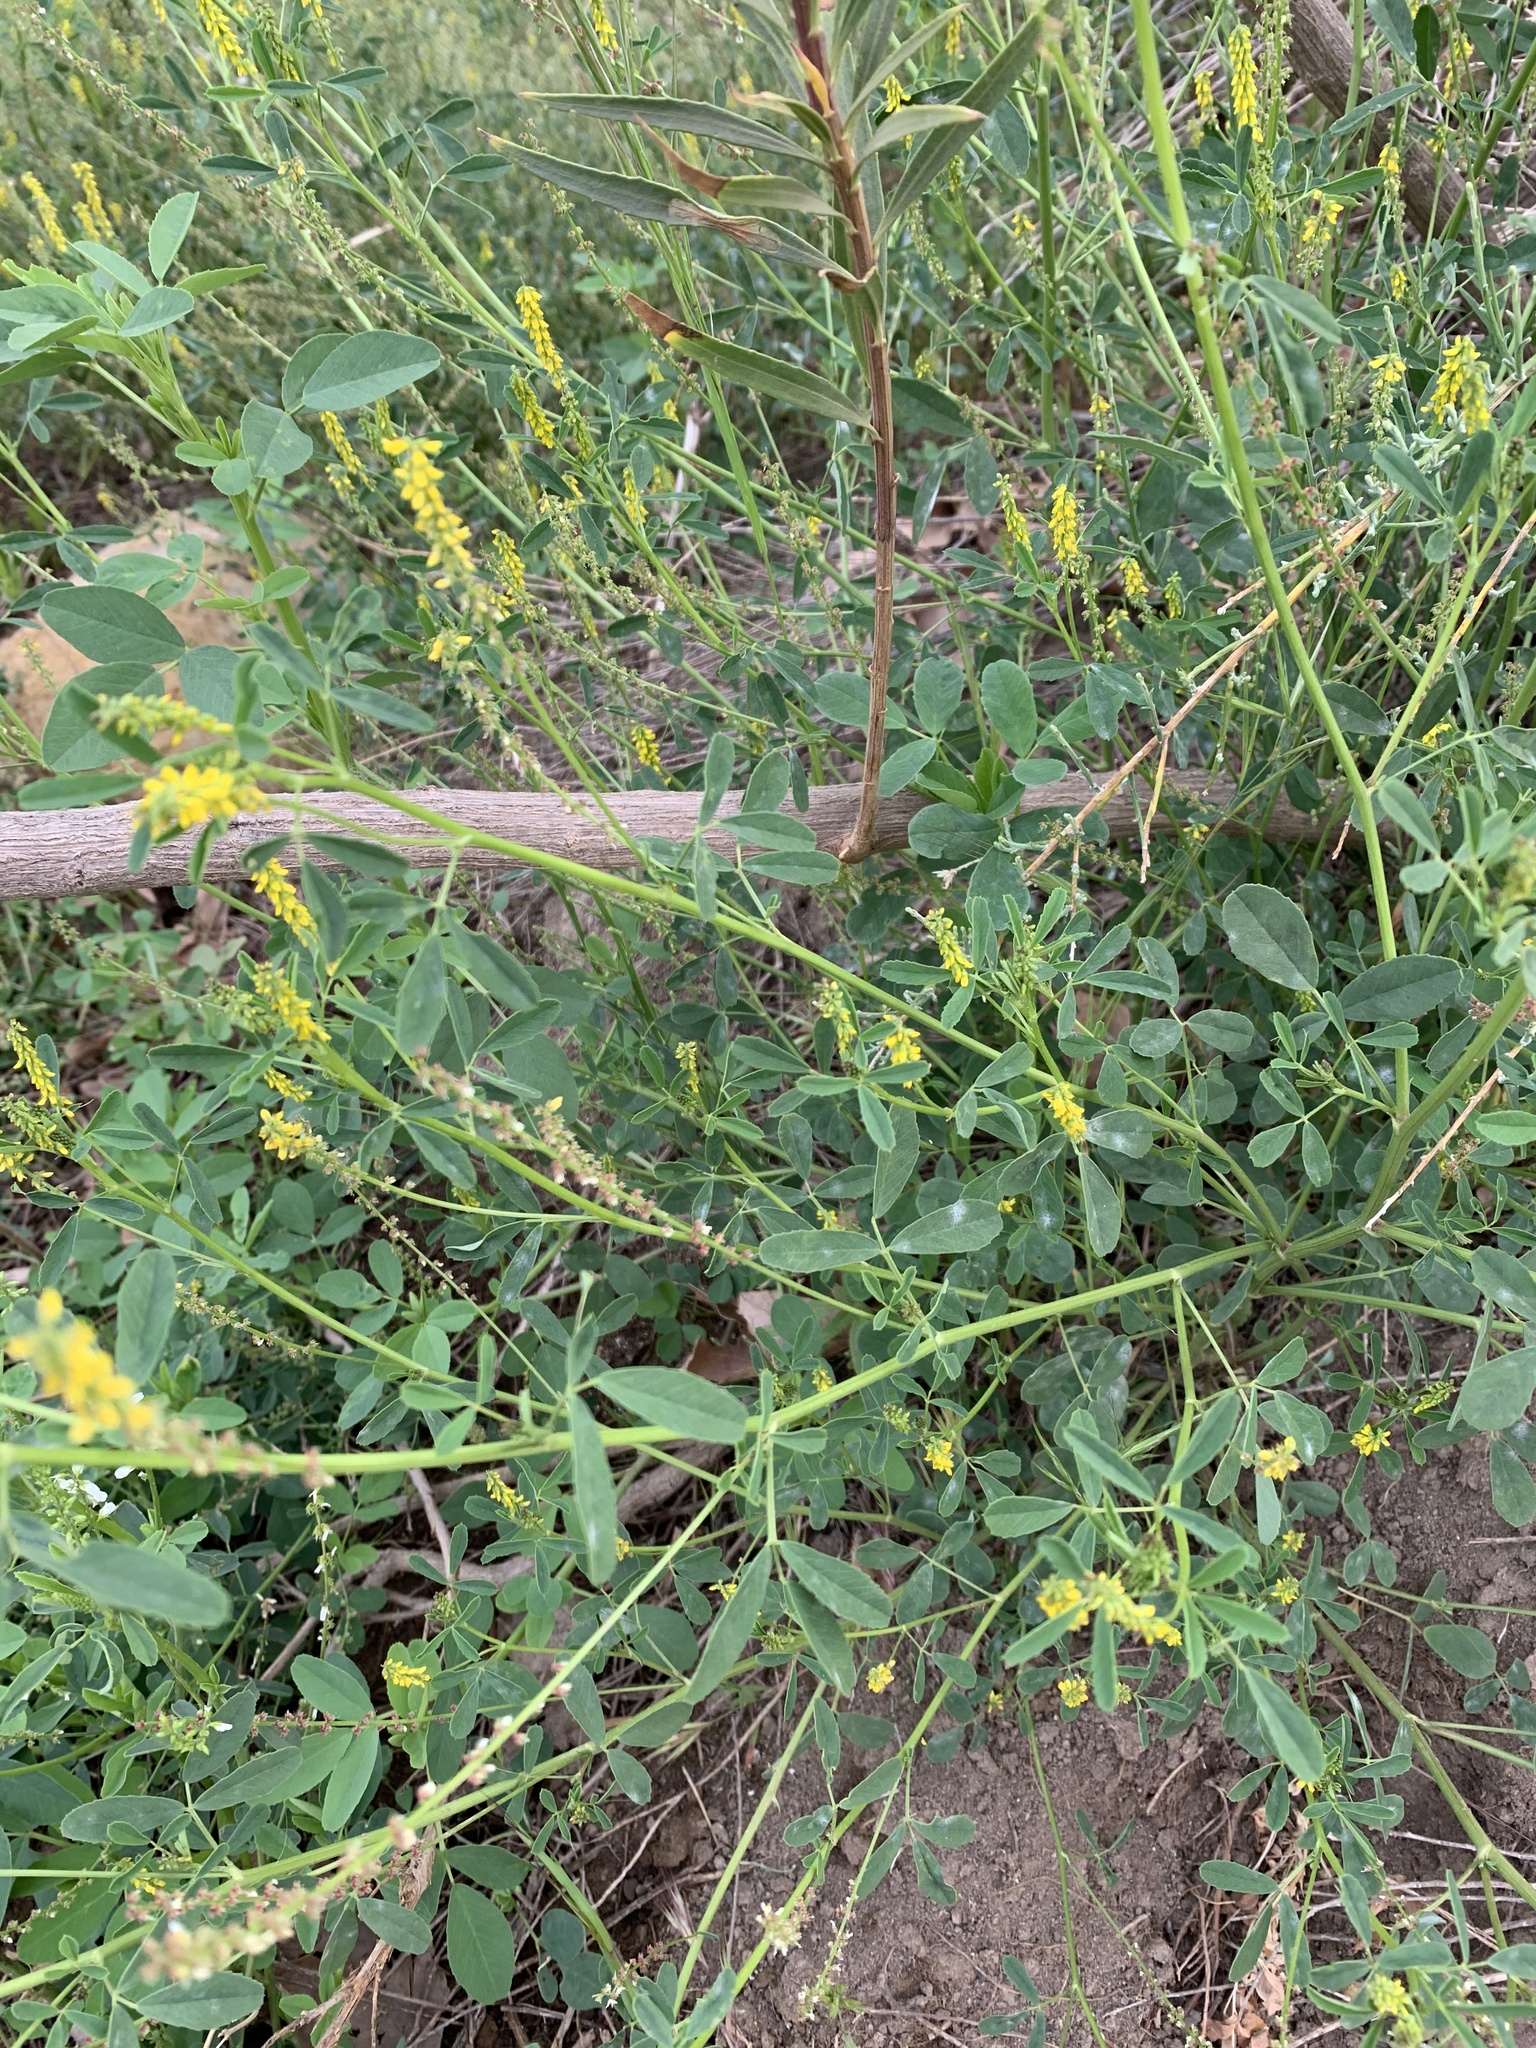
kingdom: Plantae
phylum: Tracheophyta
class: Magnoliopsida
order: Fabales
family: Fabaceae
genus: Melilotus
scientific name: Melilotus indicus
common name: Small melilot
